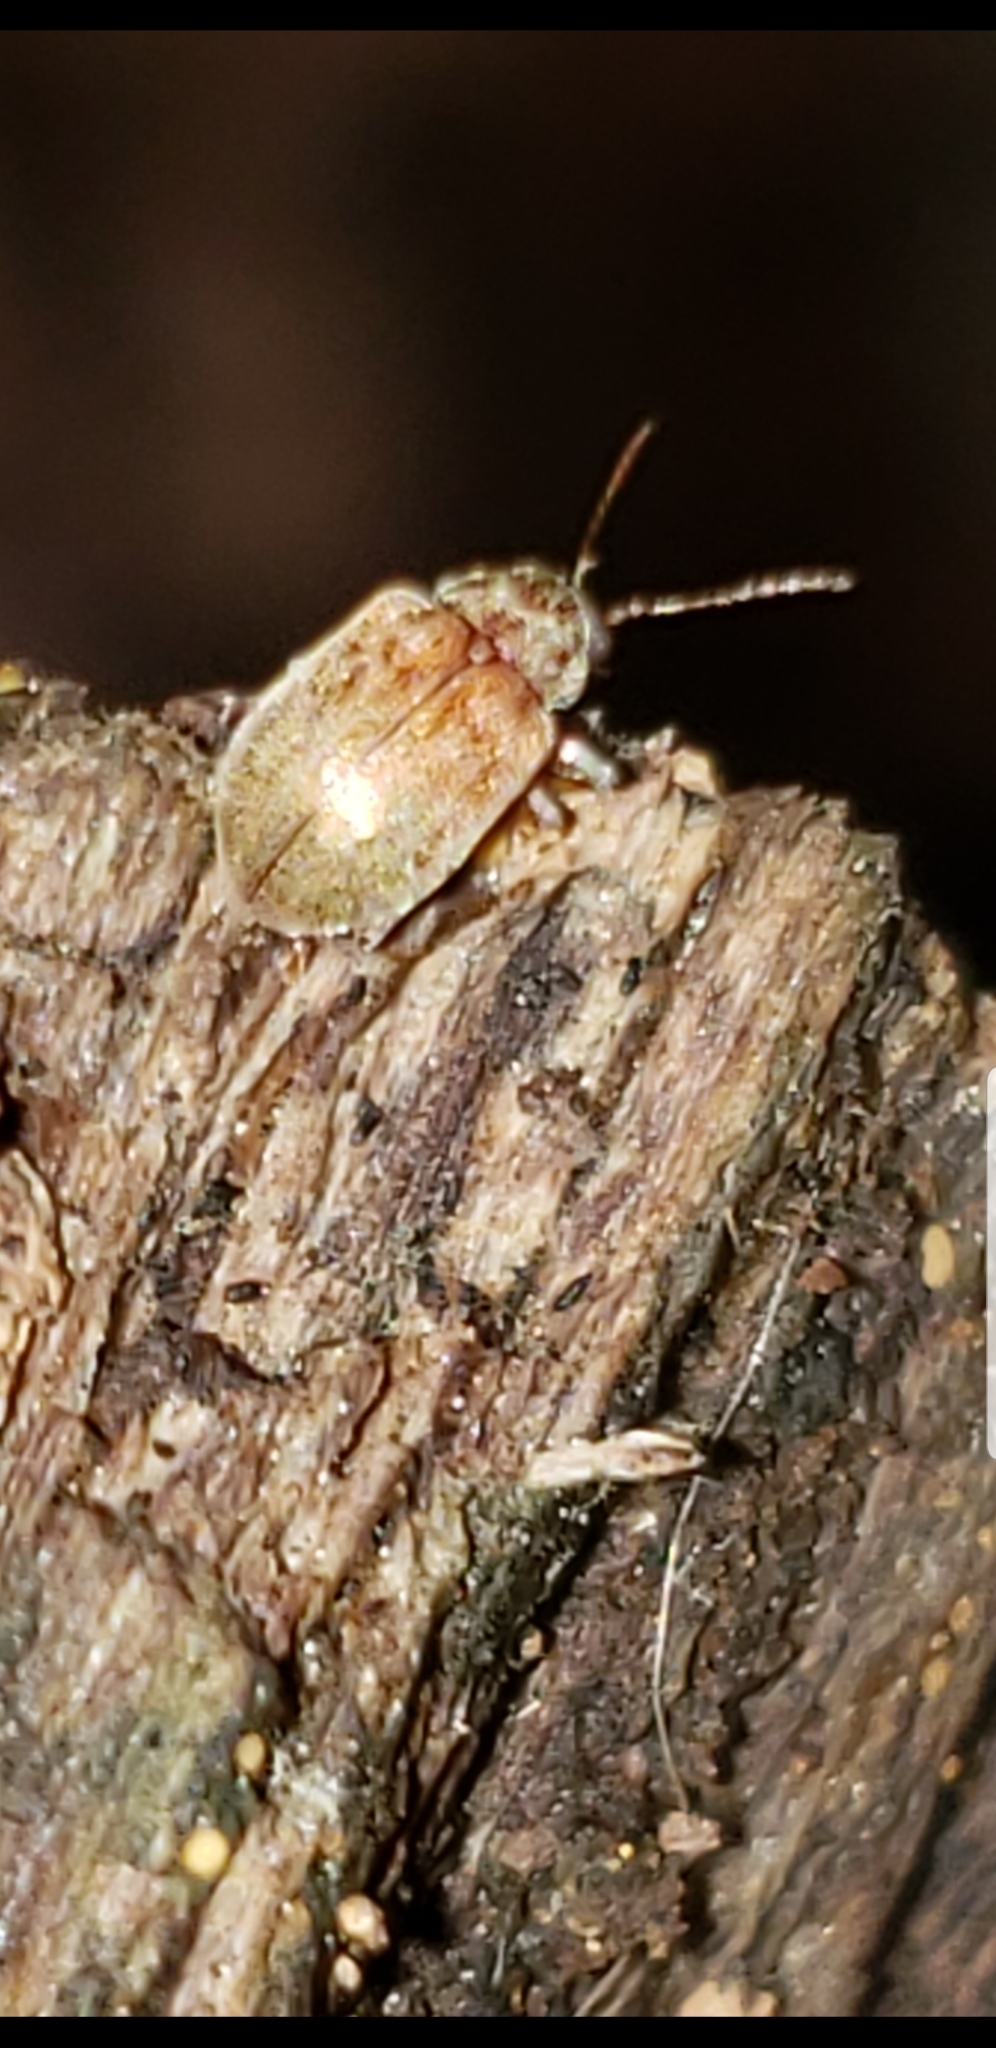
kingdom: Animalia
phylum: Arthropoda
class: Insecta
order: Coleoptera
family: Chrysomelidae
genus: Demotina
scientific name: Demotina modesta
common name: Leaf beetle
